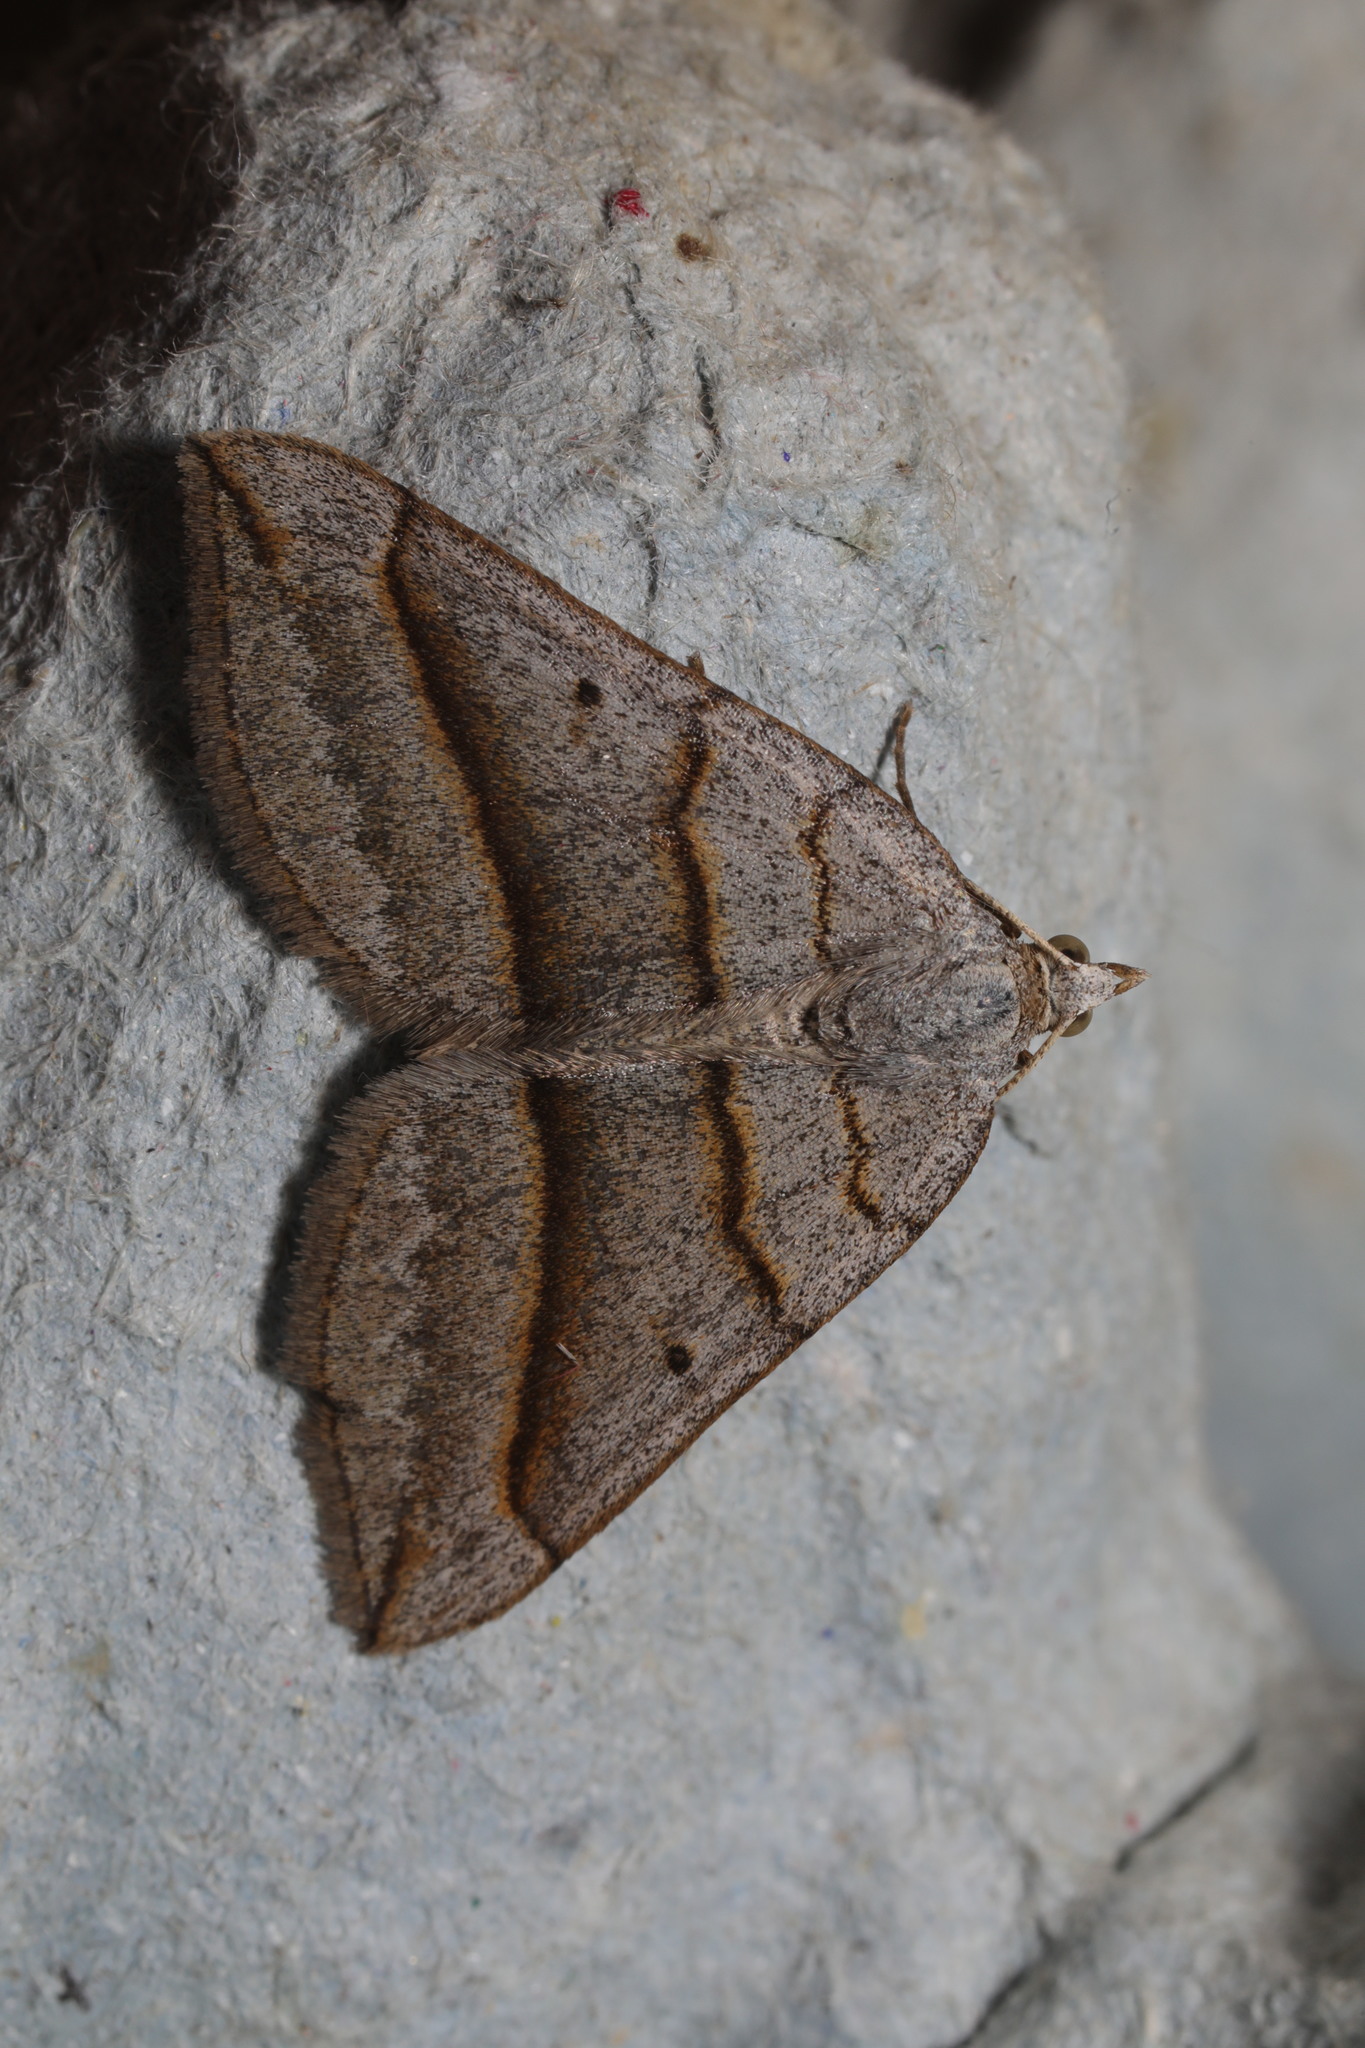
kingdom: Animalia
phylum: Arthropoda
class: Insecta
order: Lepidoptera
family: Geometridae
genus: Scotopteryx
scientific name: Scotopteryx luridata
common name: July belle
